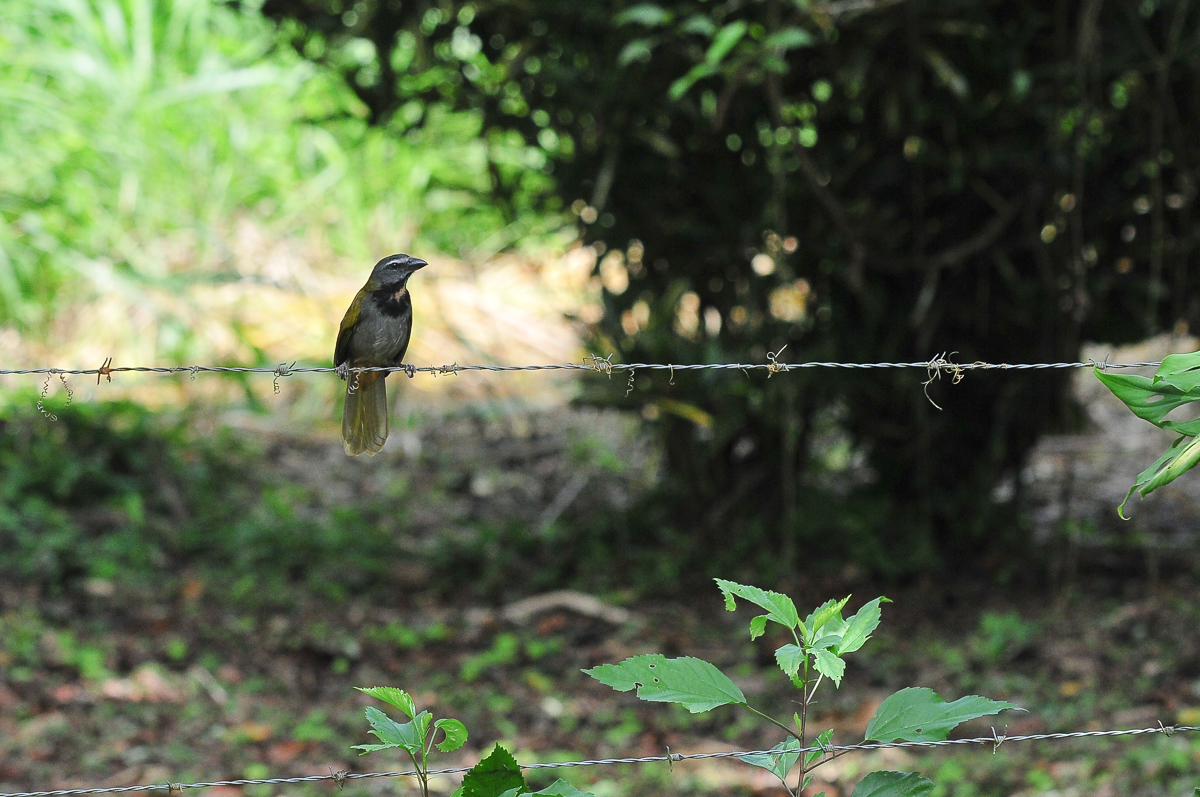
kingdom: Animalia
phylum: Chordata
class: Aves
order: Passeriformes
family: Thraupidae
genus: Saltator
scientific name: Saltator maximus
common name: Buff-throated saltator
